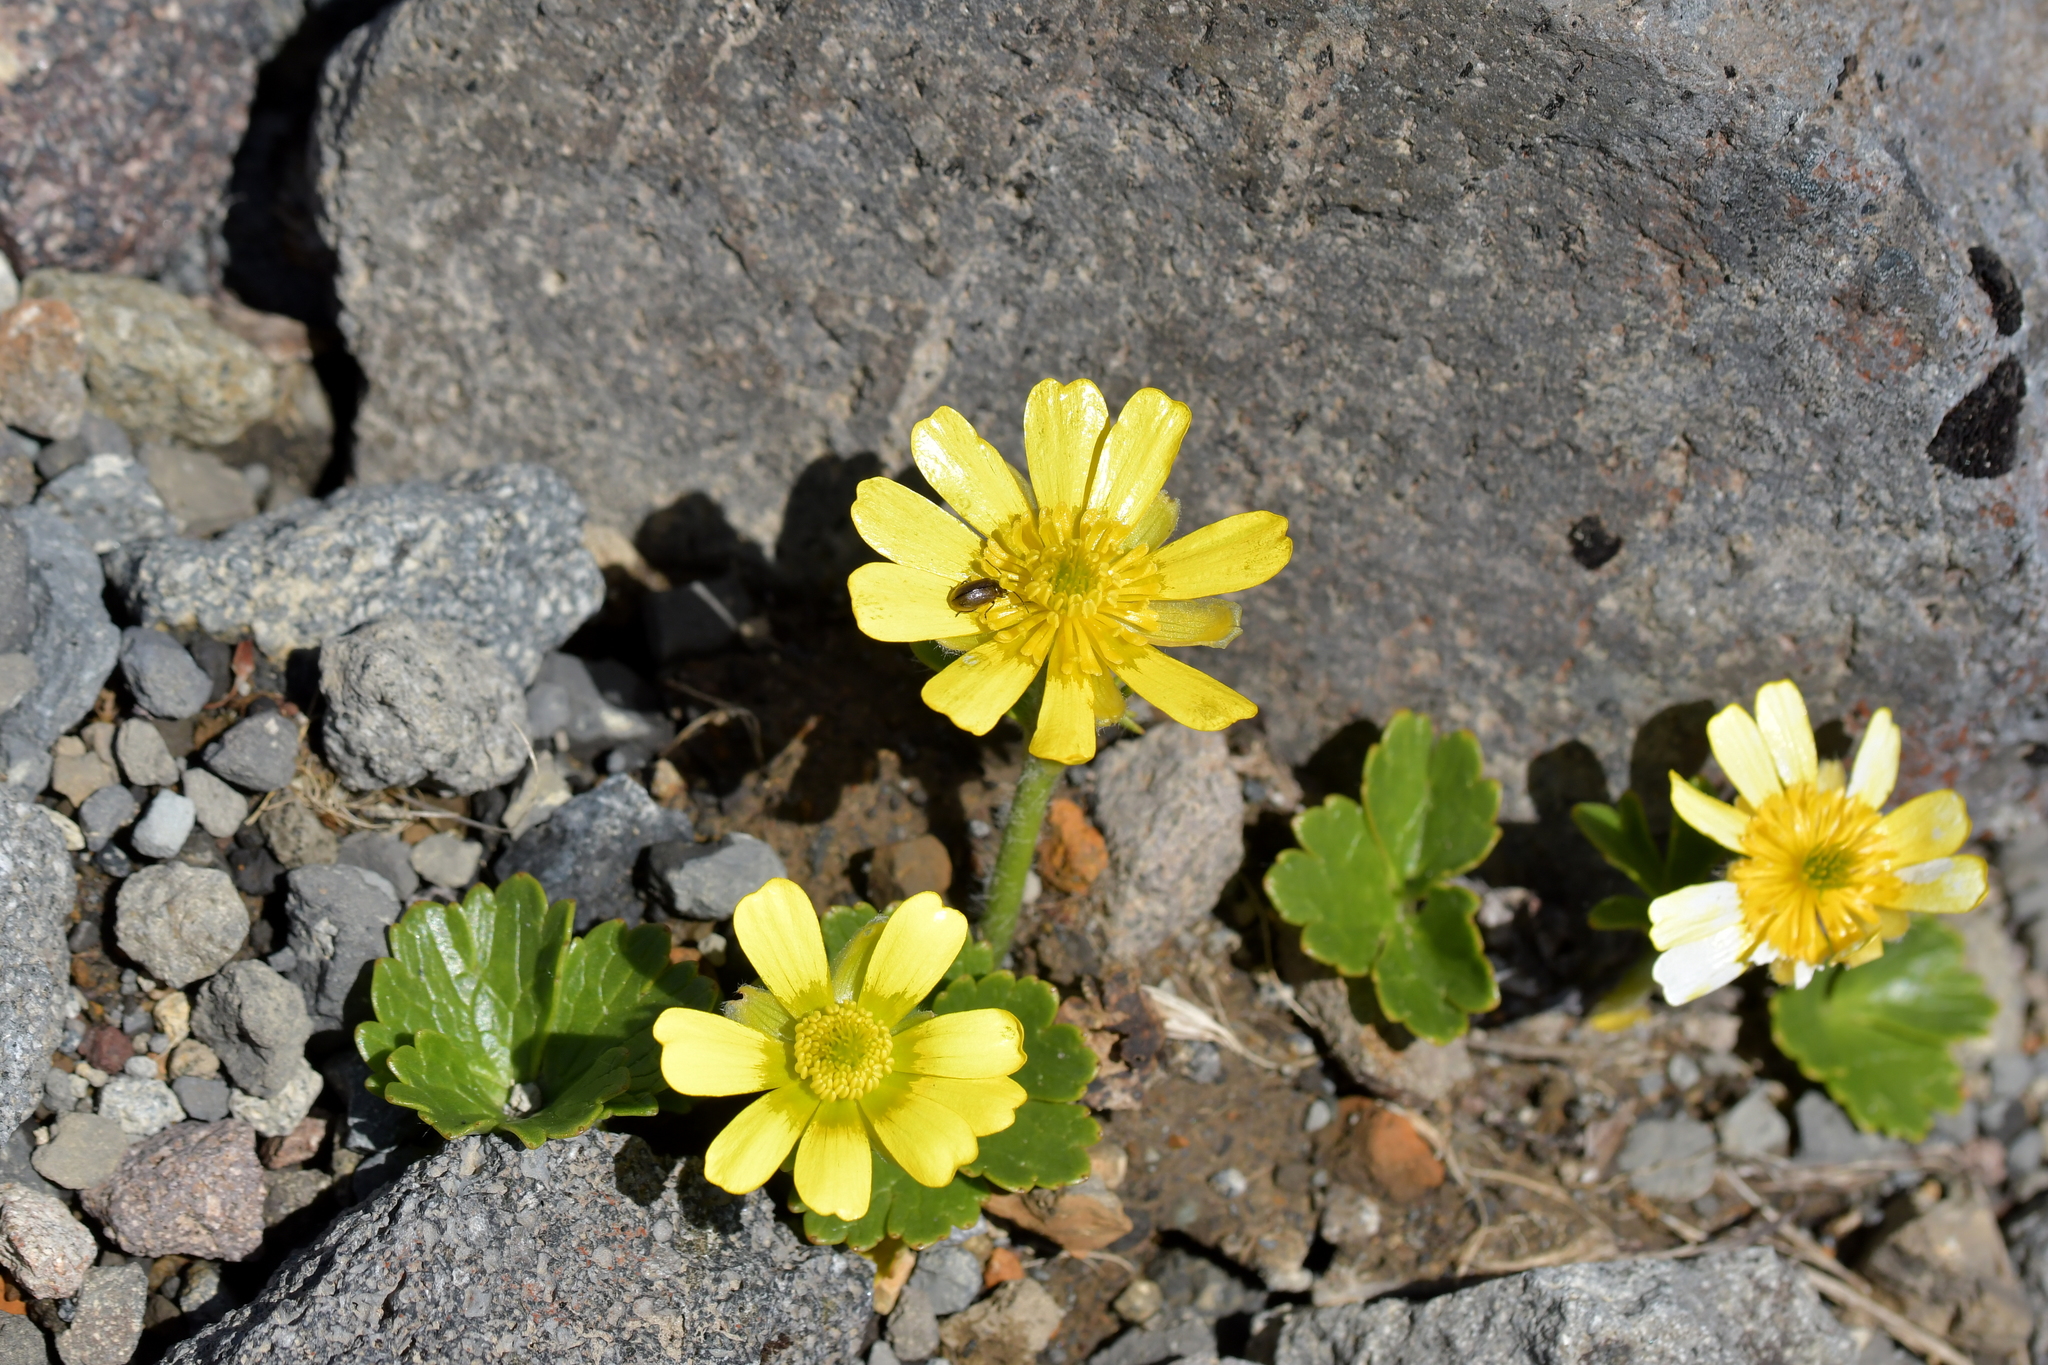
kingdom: Plantae
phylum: Tracheophyta
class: Magnoliopsida
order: Ranunculales
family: Ranunculaceae
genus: Ranunculus
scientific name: Ranunculus nivicola
